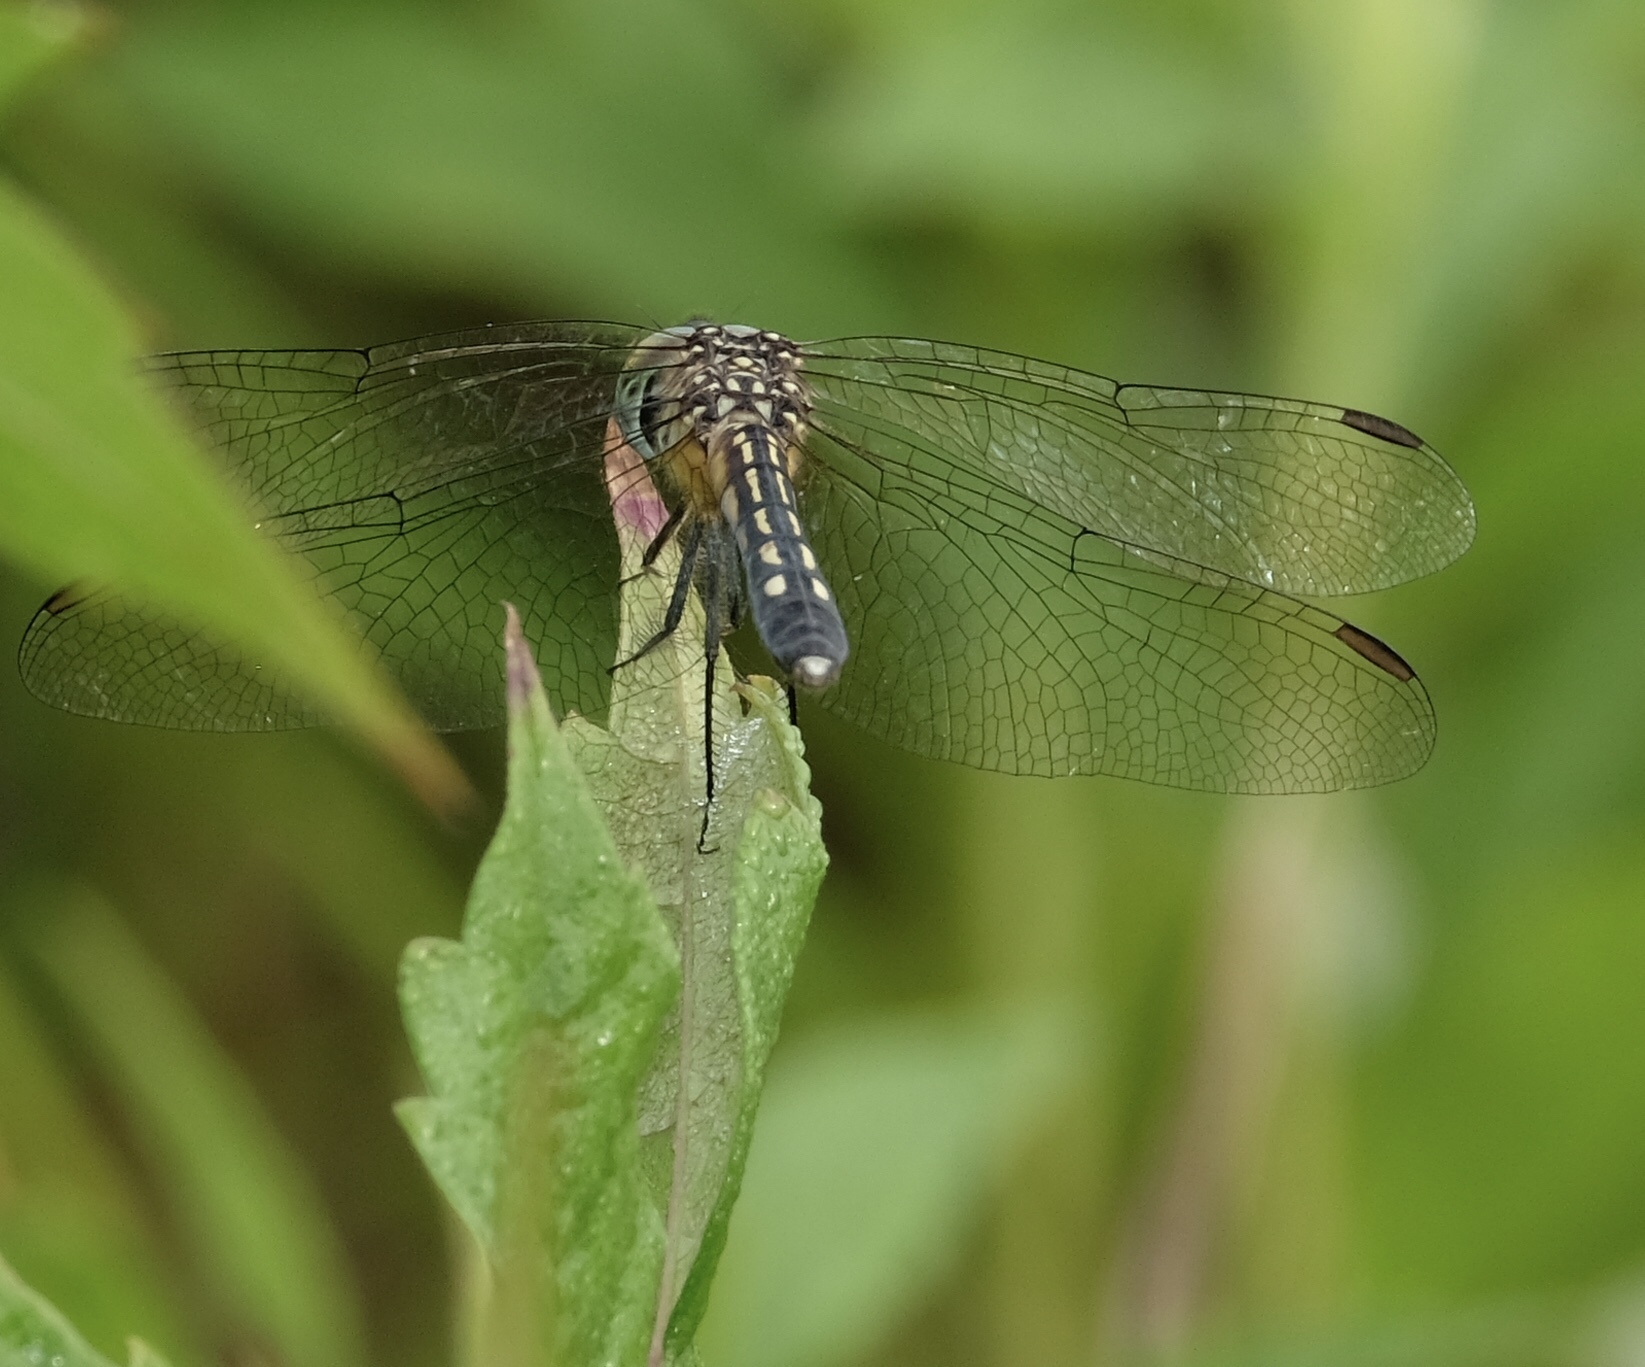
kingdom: Animalia
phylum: Arthropoda
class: Insecta
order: Odonata
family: Libellulidae
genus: Pachydiplax
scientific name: Pachydiplax longipennis
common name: Blue dasher
